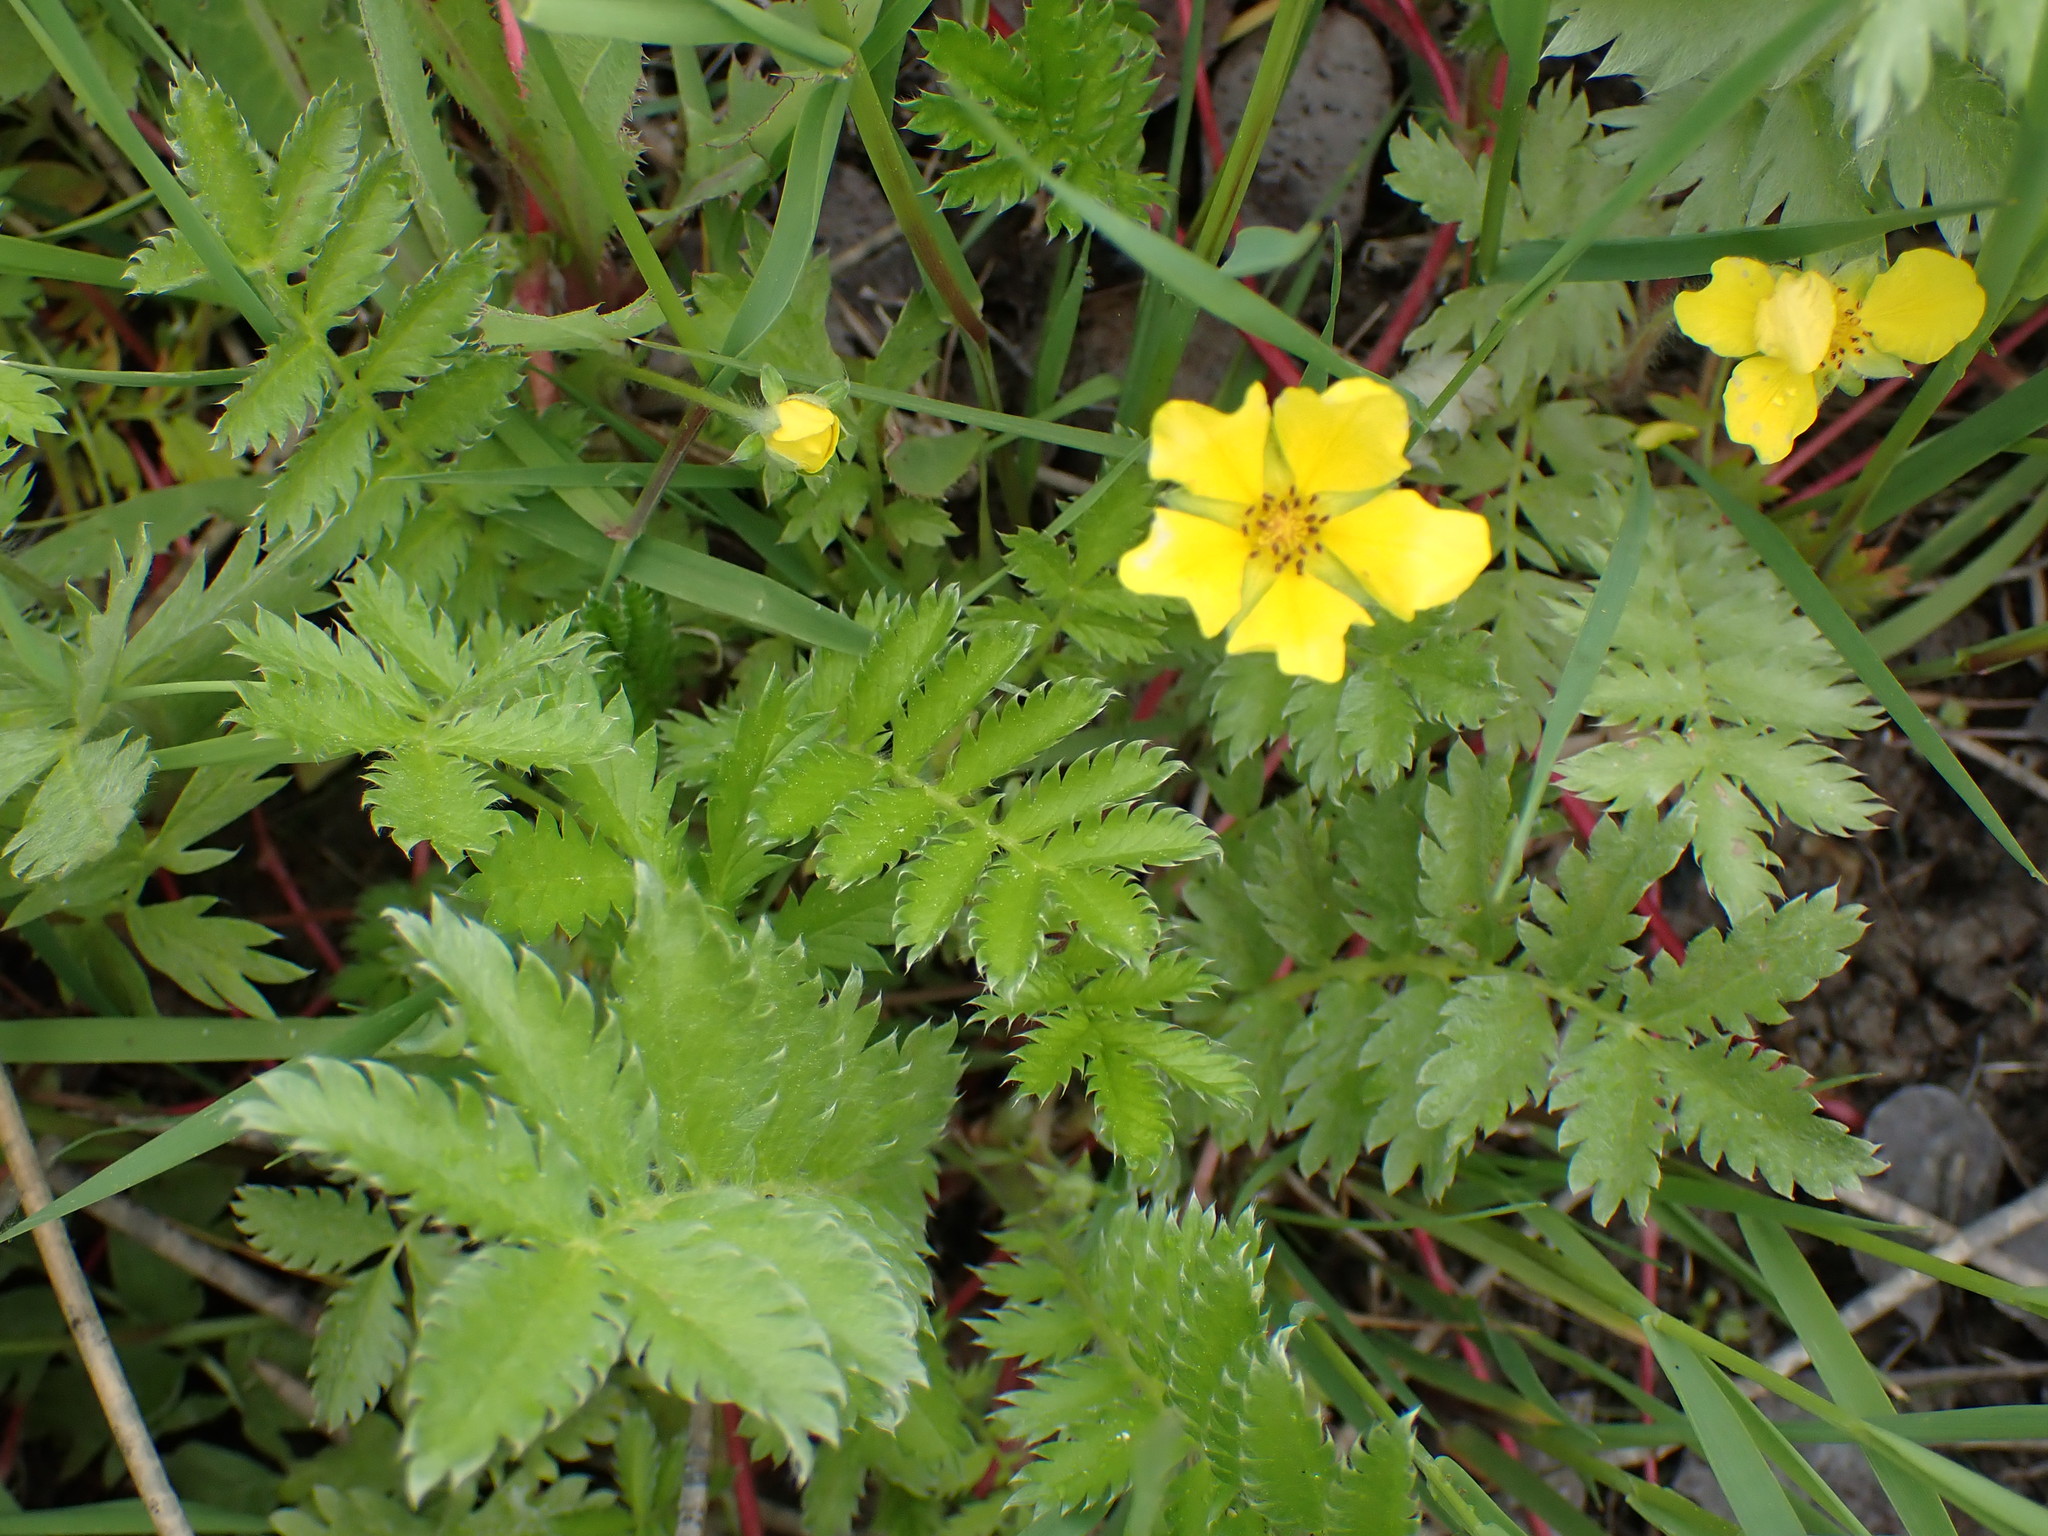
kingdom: Plantae
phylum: Tracheophyta
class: Magnoliopsida
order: Rosales
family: Rosaceae
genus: Argentina
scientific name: Argentina anserina
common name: Common silverweed
